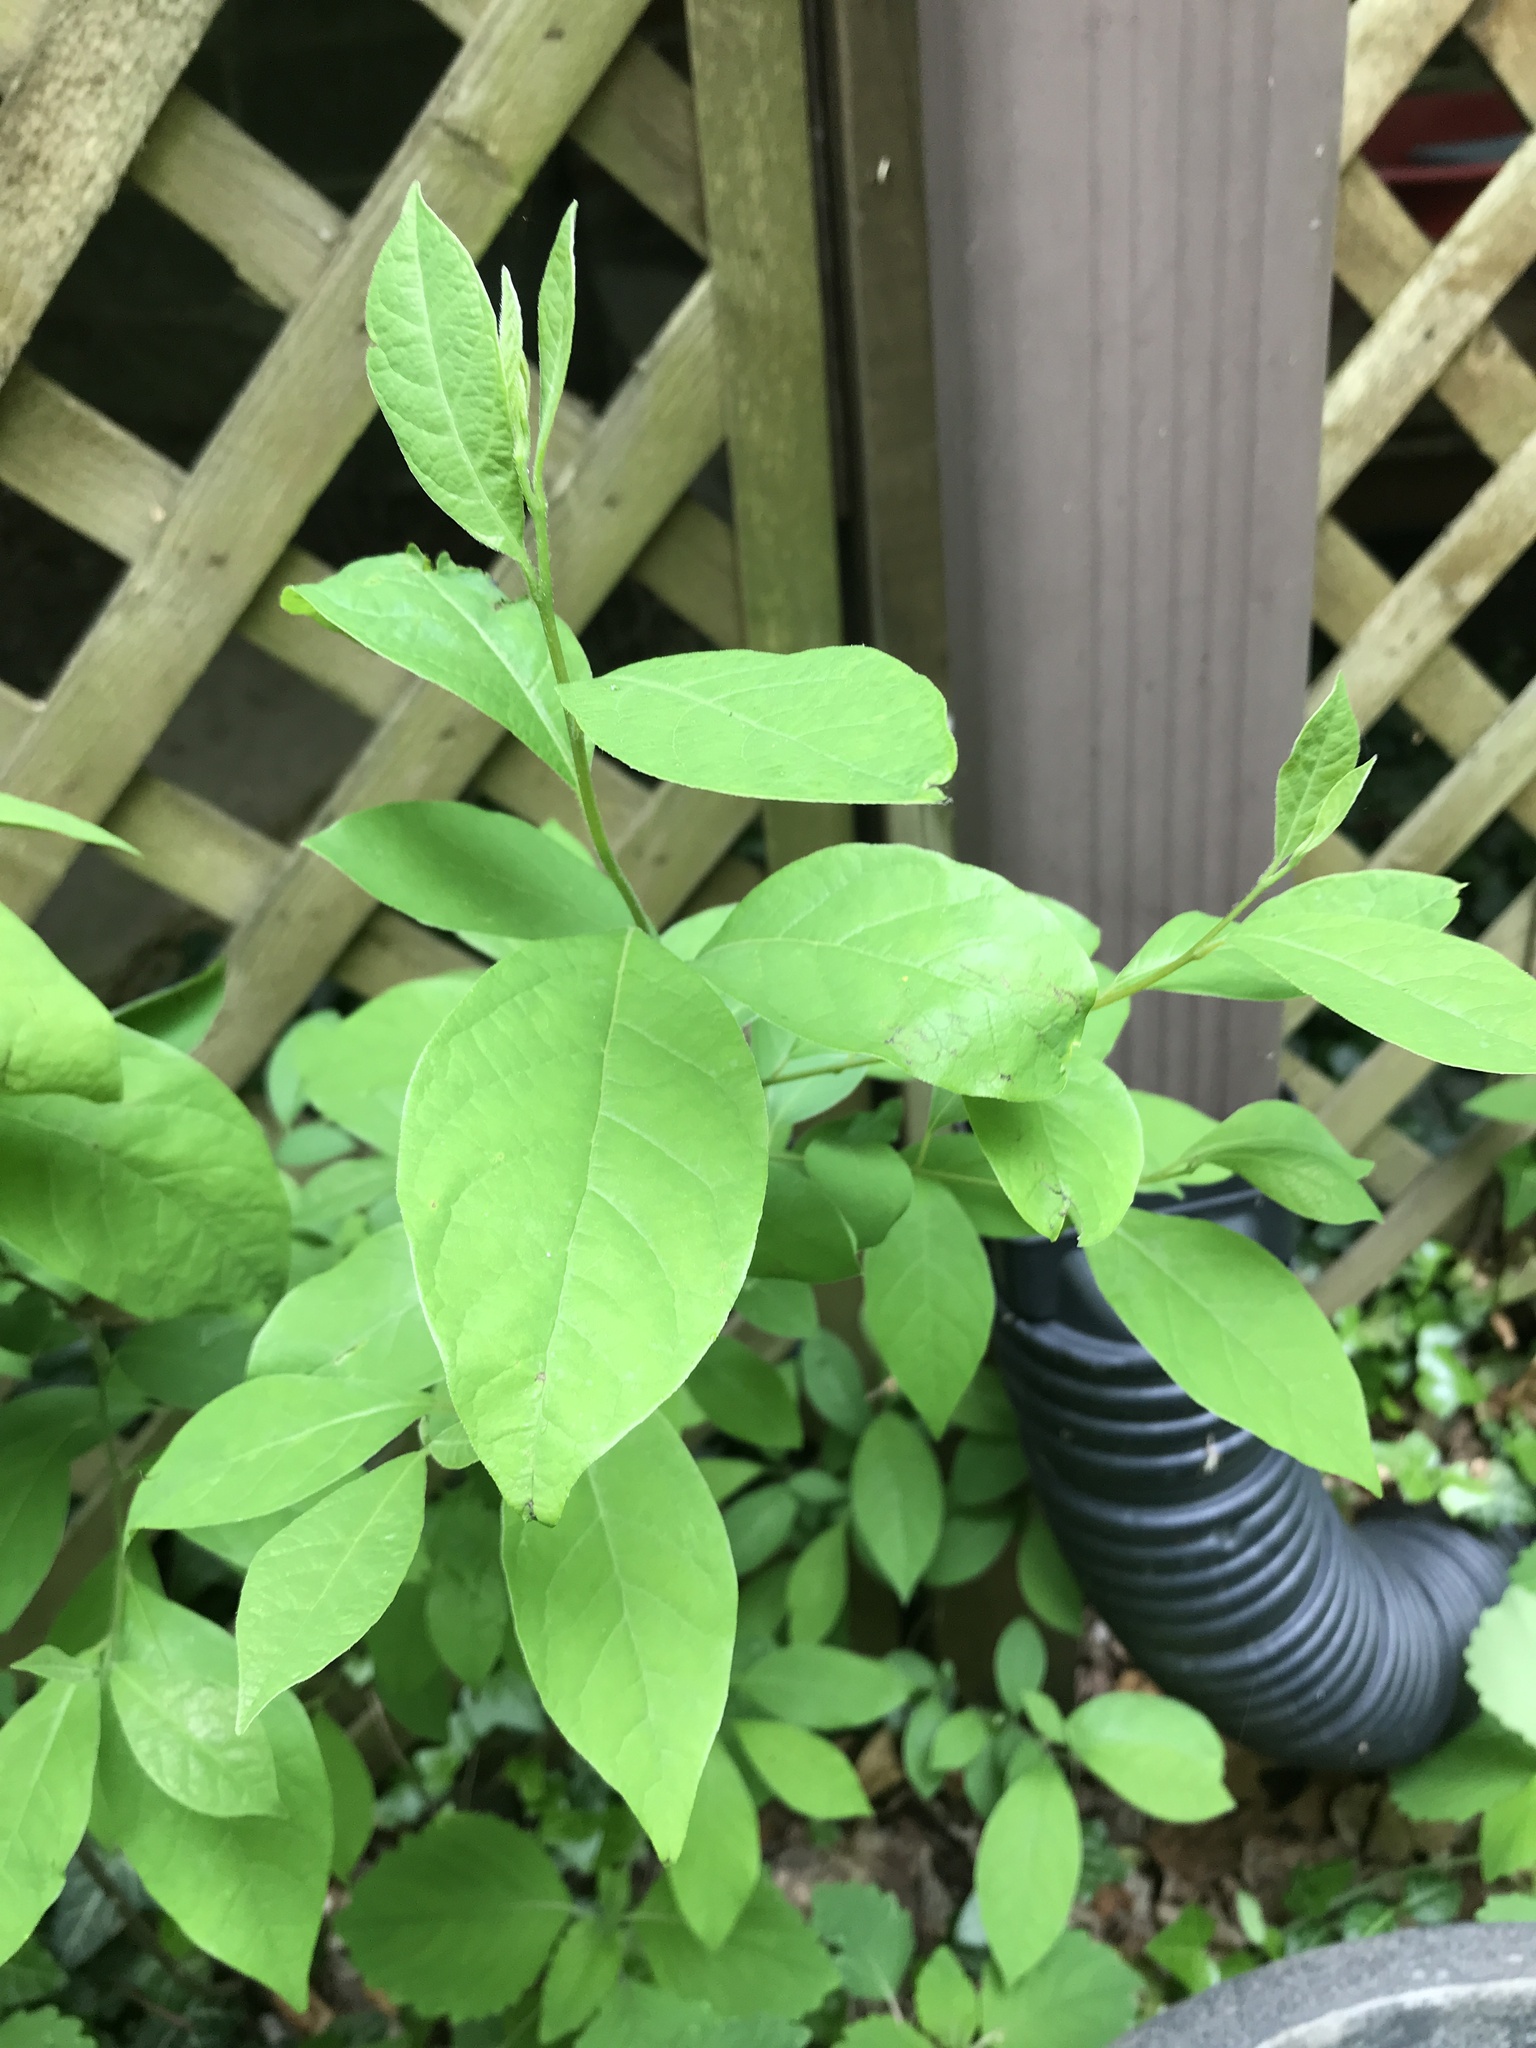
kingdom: Plantae
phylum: Tracheophyta
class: Magnoliopsida
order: Laurales
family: Lauraceae
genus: Lindera
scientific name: Lindera benzoin
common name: Spicebush
